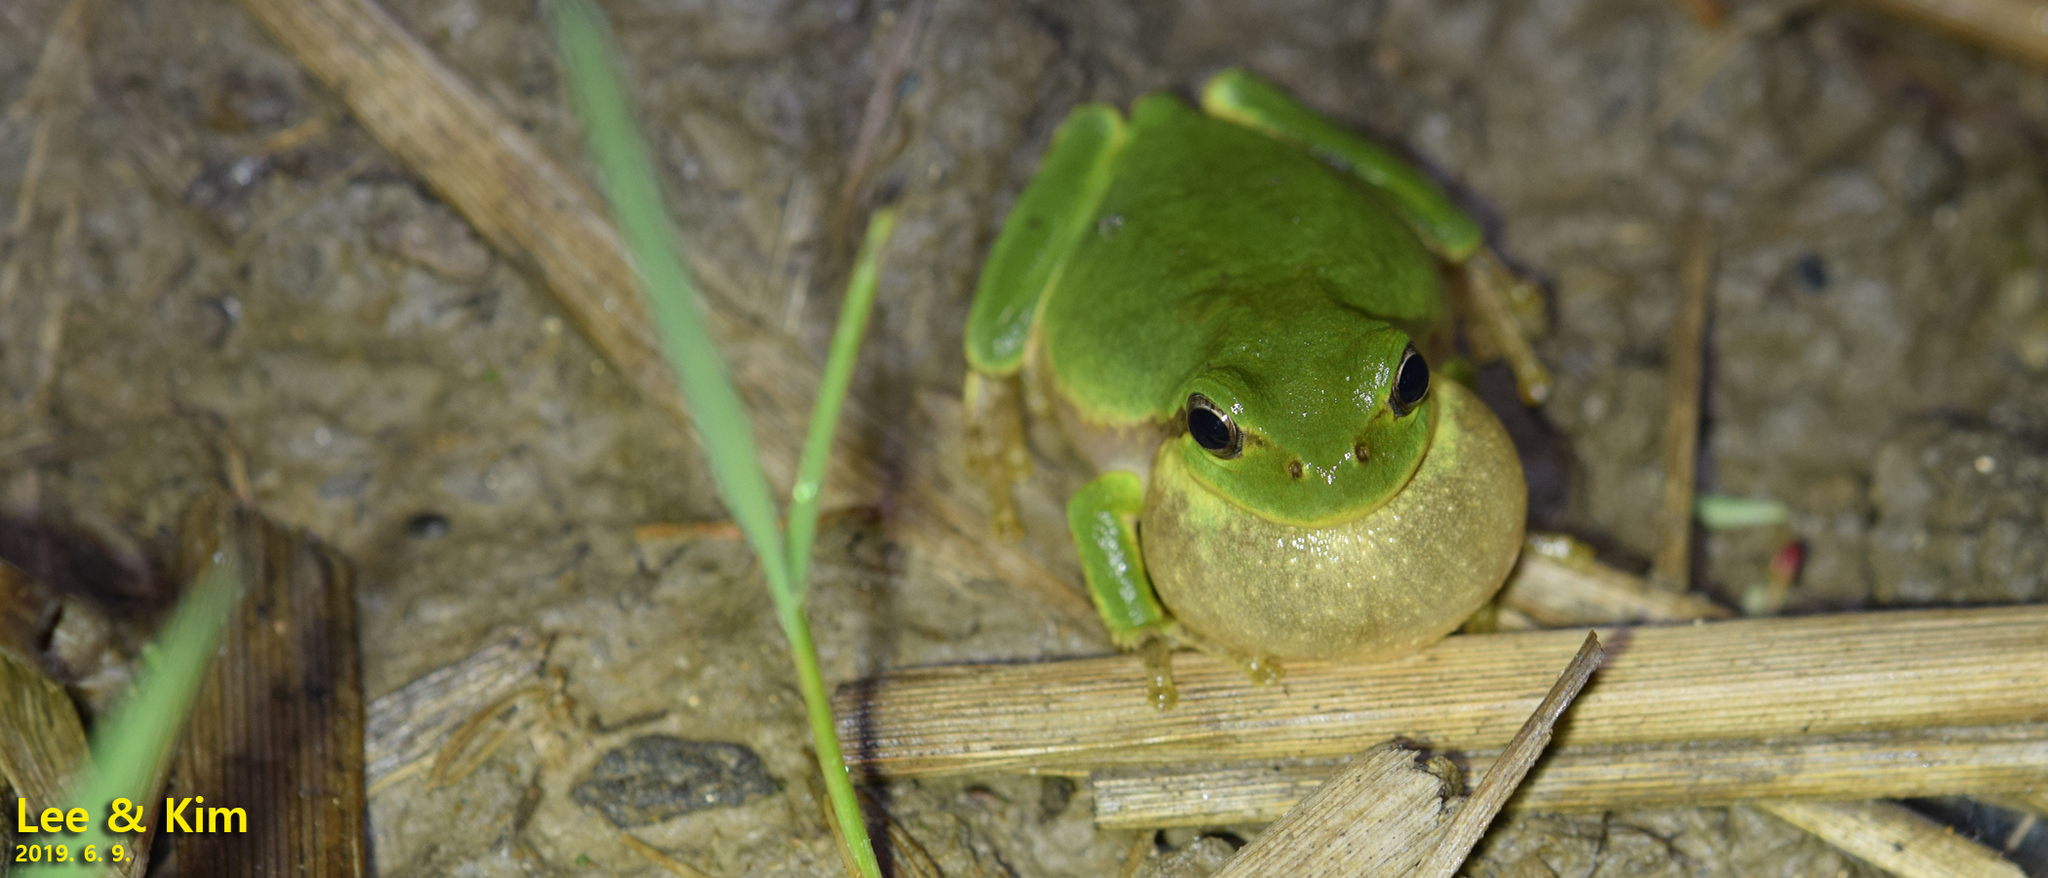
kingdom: Animalia
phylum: Chordata
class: Amphibia
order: Anura
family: Hylidae
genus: Dryophytes
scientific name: Dryophytes japonicus
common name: Japanese treefrog
